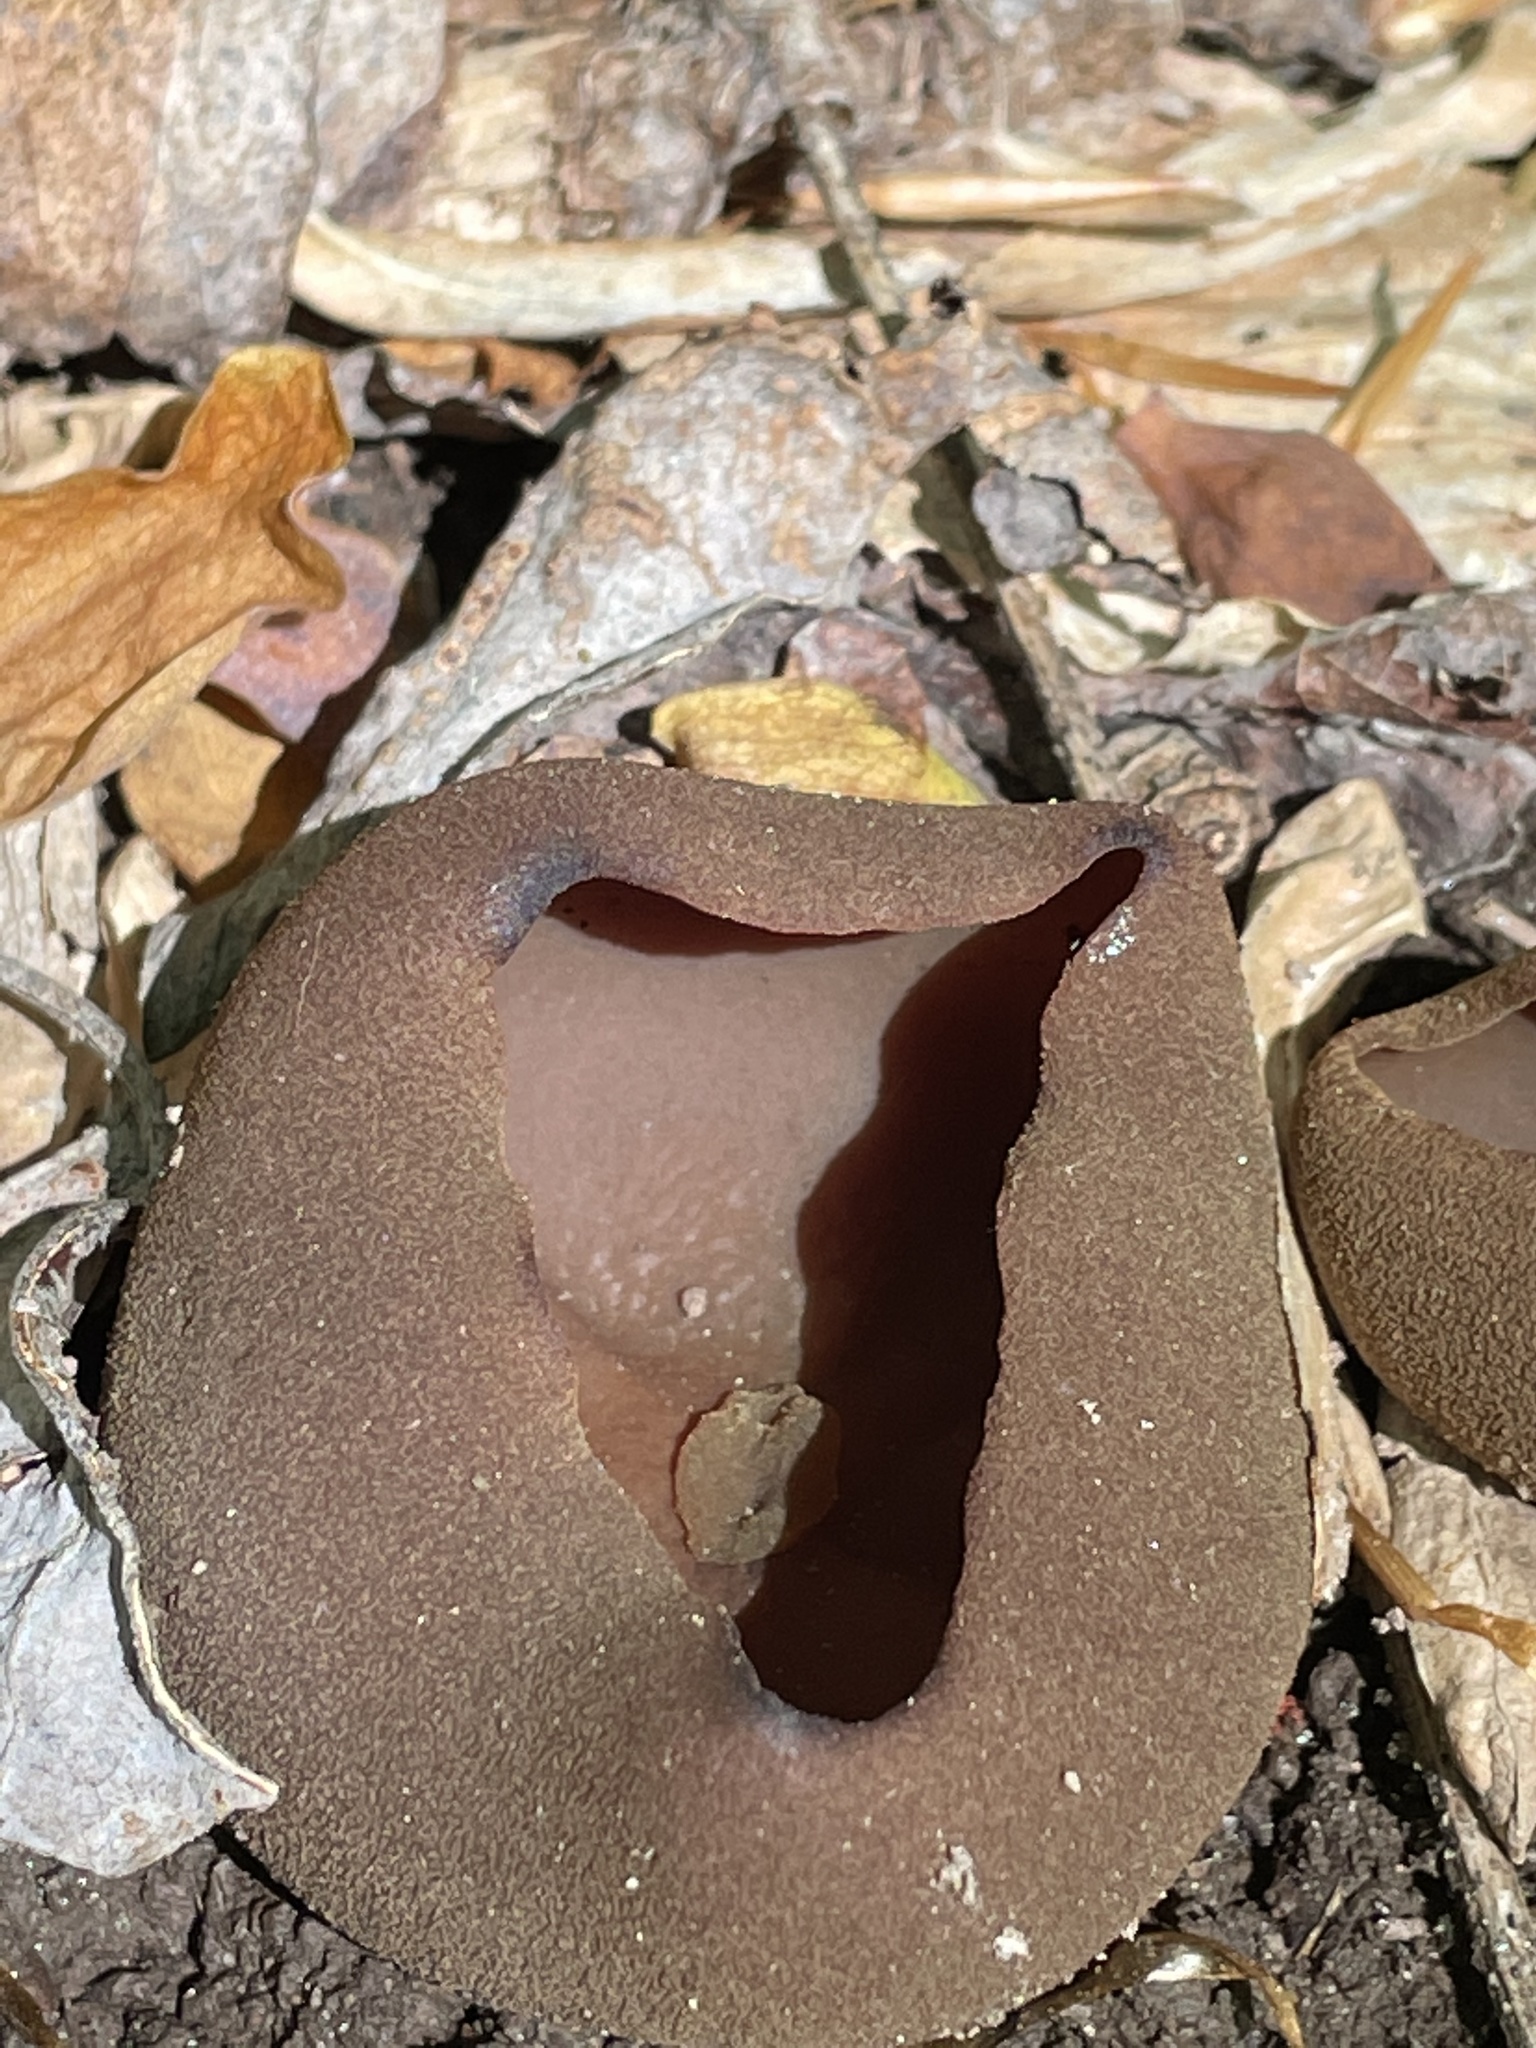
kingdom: Fungi
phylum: Ascomycota
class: Pezizomycetes
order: Pezizales
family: Pezizaceae
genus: Phylloscypha
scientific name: Phylloscypha phyllogena
